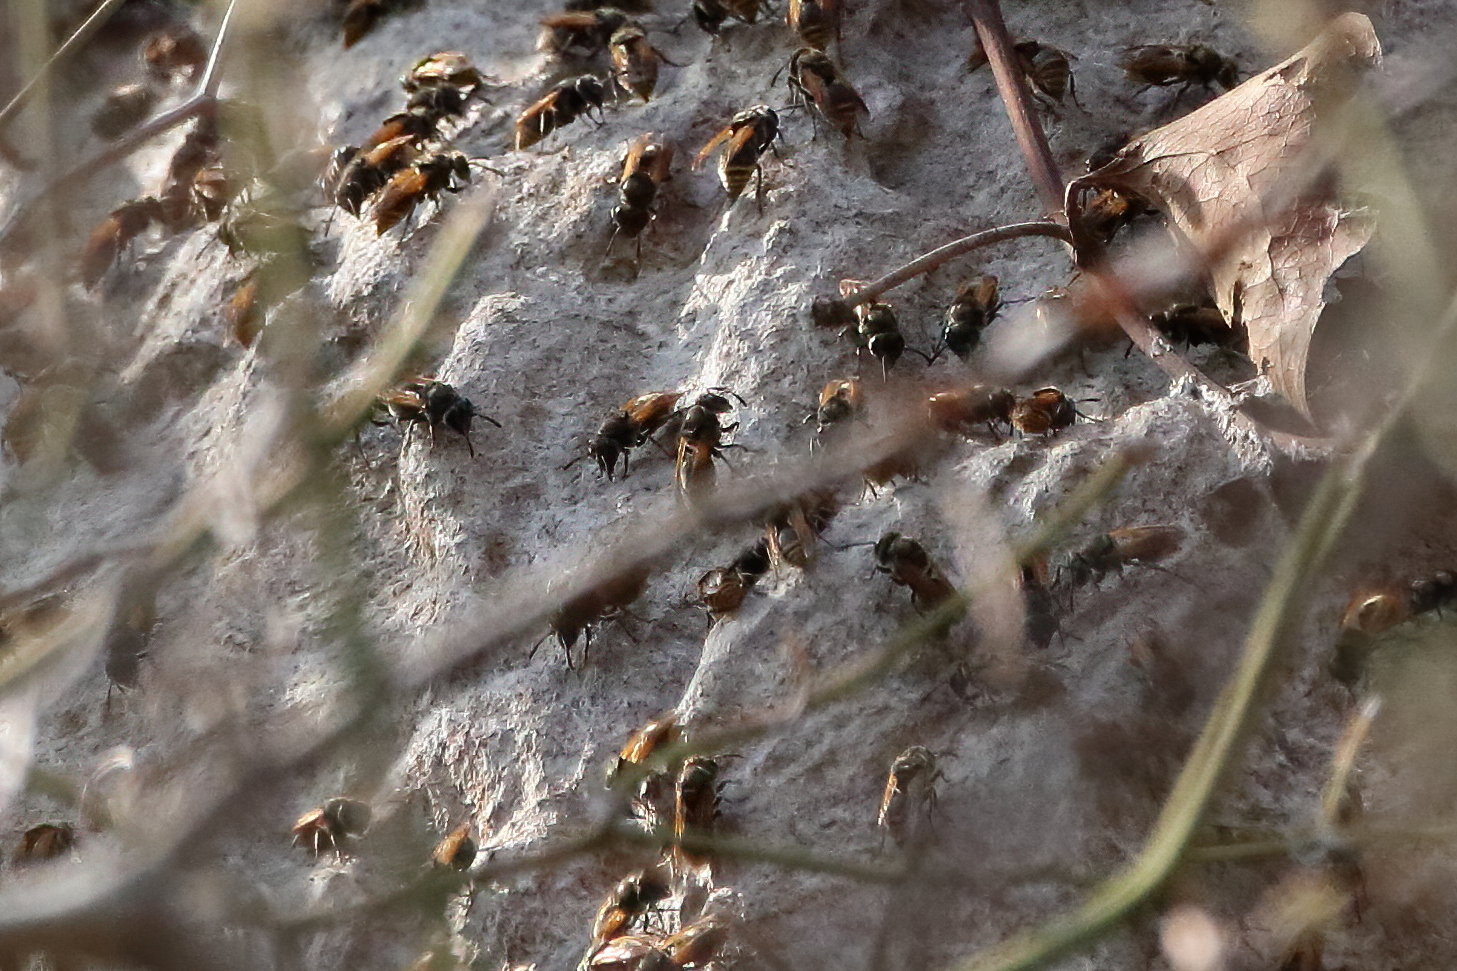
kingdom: Animalia
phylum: Arthropoda
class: Insecta
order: Hymenoptera
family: Vespidae
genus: Brachygastra
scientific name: Brachygastra mellifica
